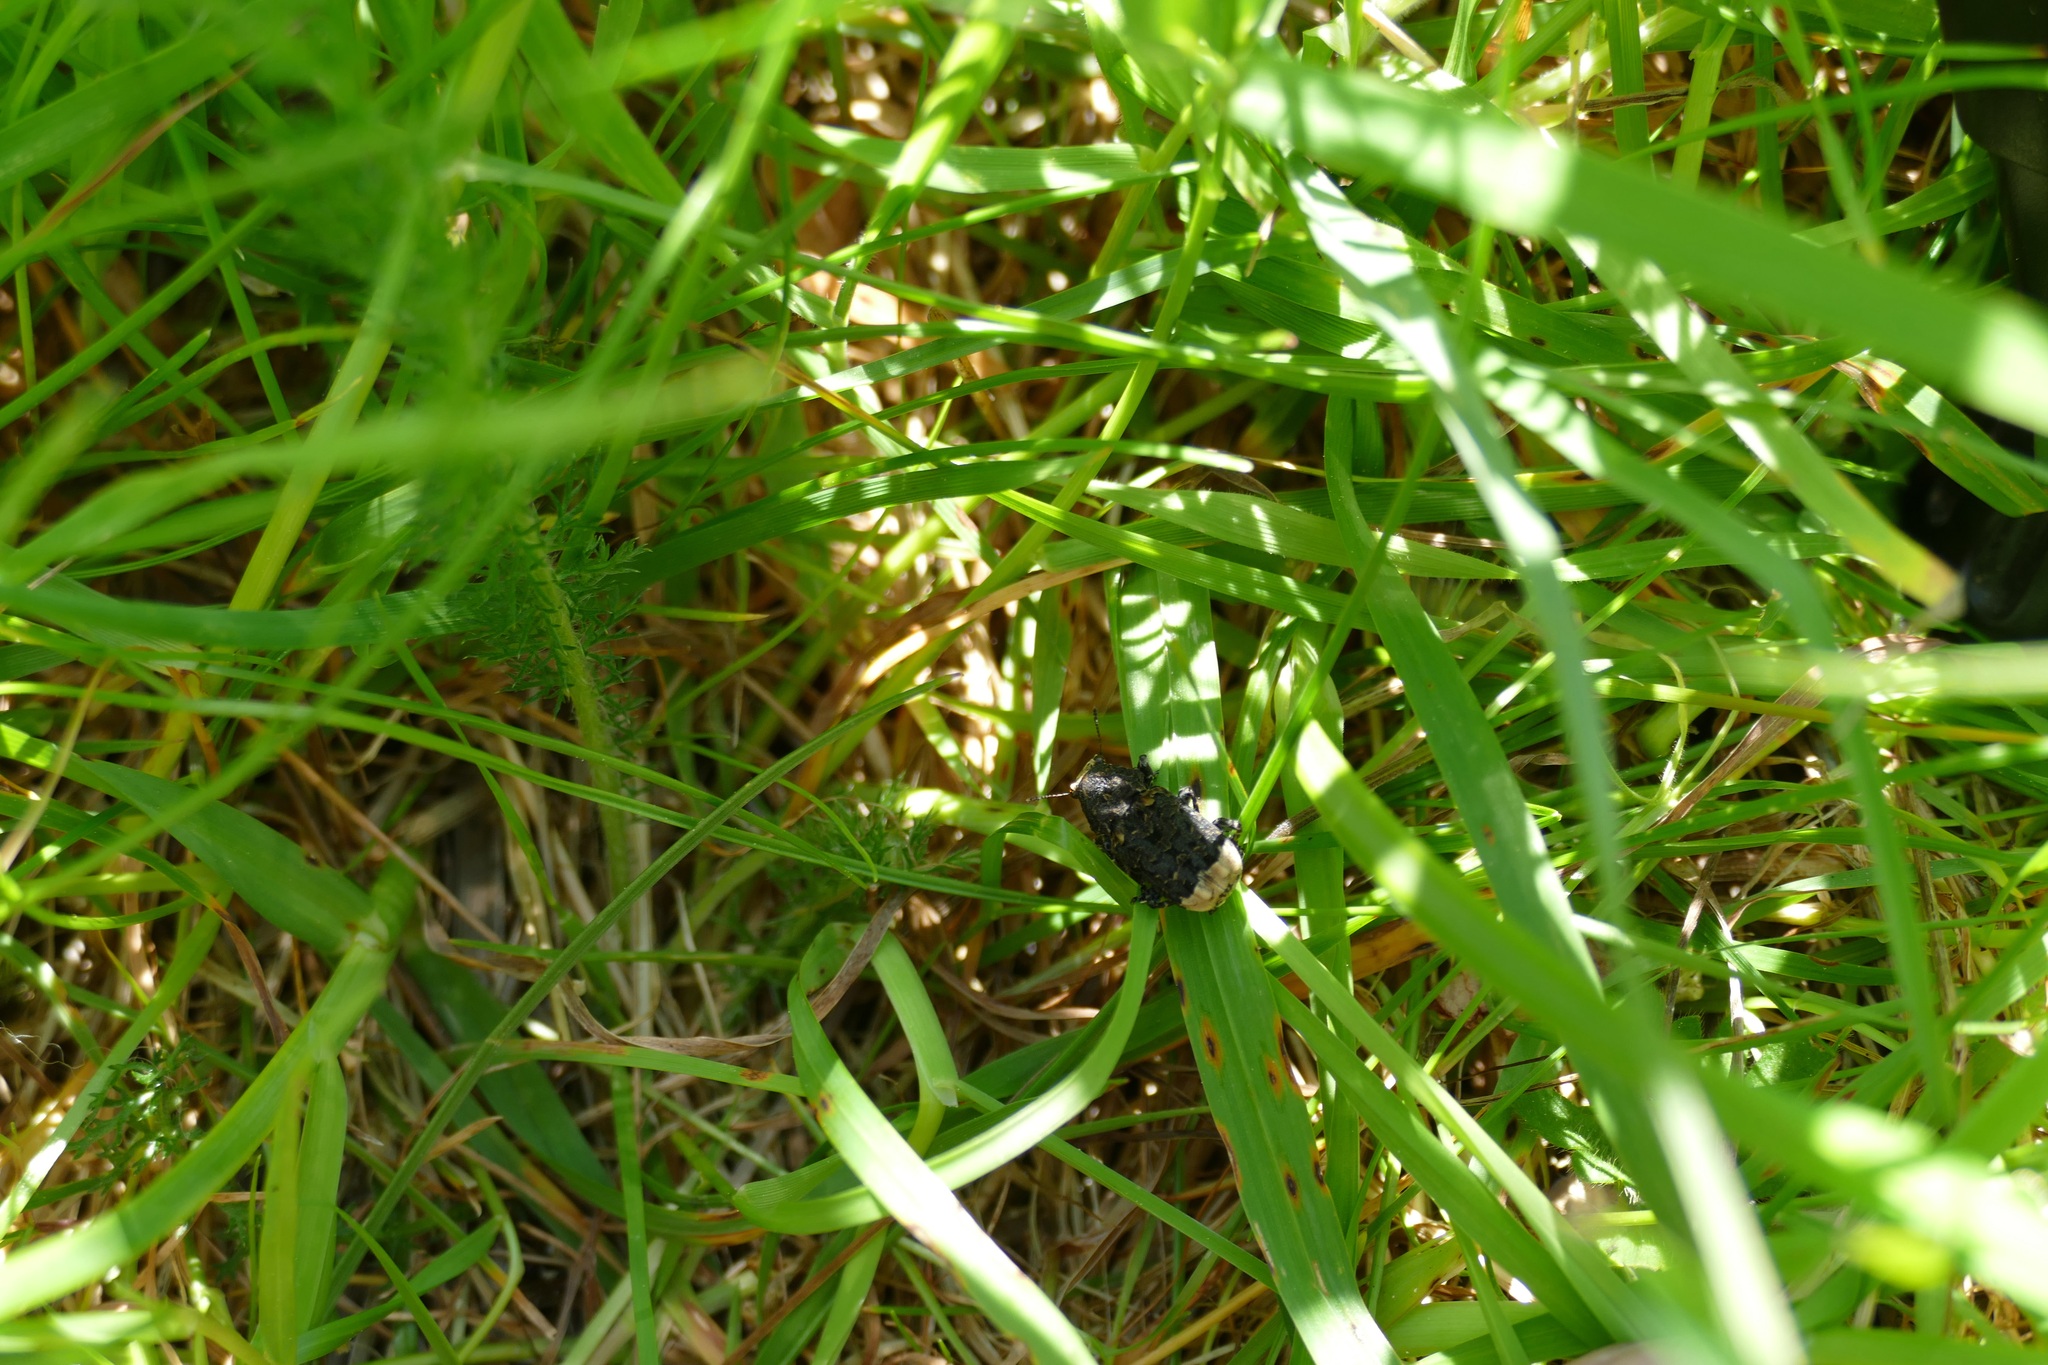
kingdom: Animalia
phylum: Arthropoda
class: Insecta
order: Coleoptera
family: Anthribidae
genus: Platyrhinus
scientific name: Platyrhinus resinosus
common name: Cramp-ball fungus weevil
